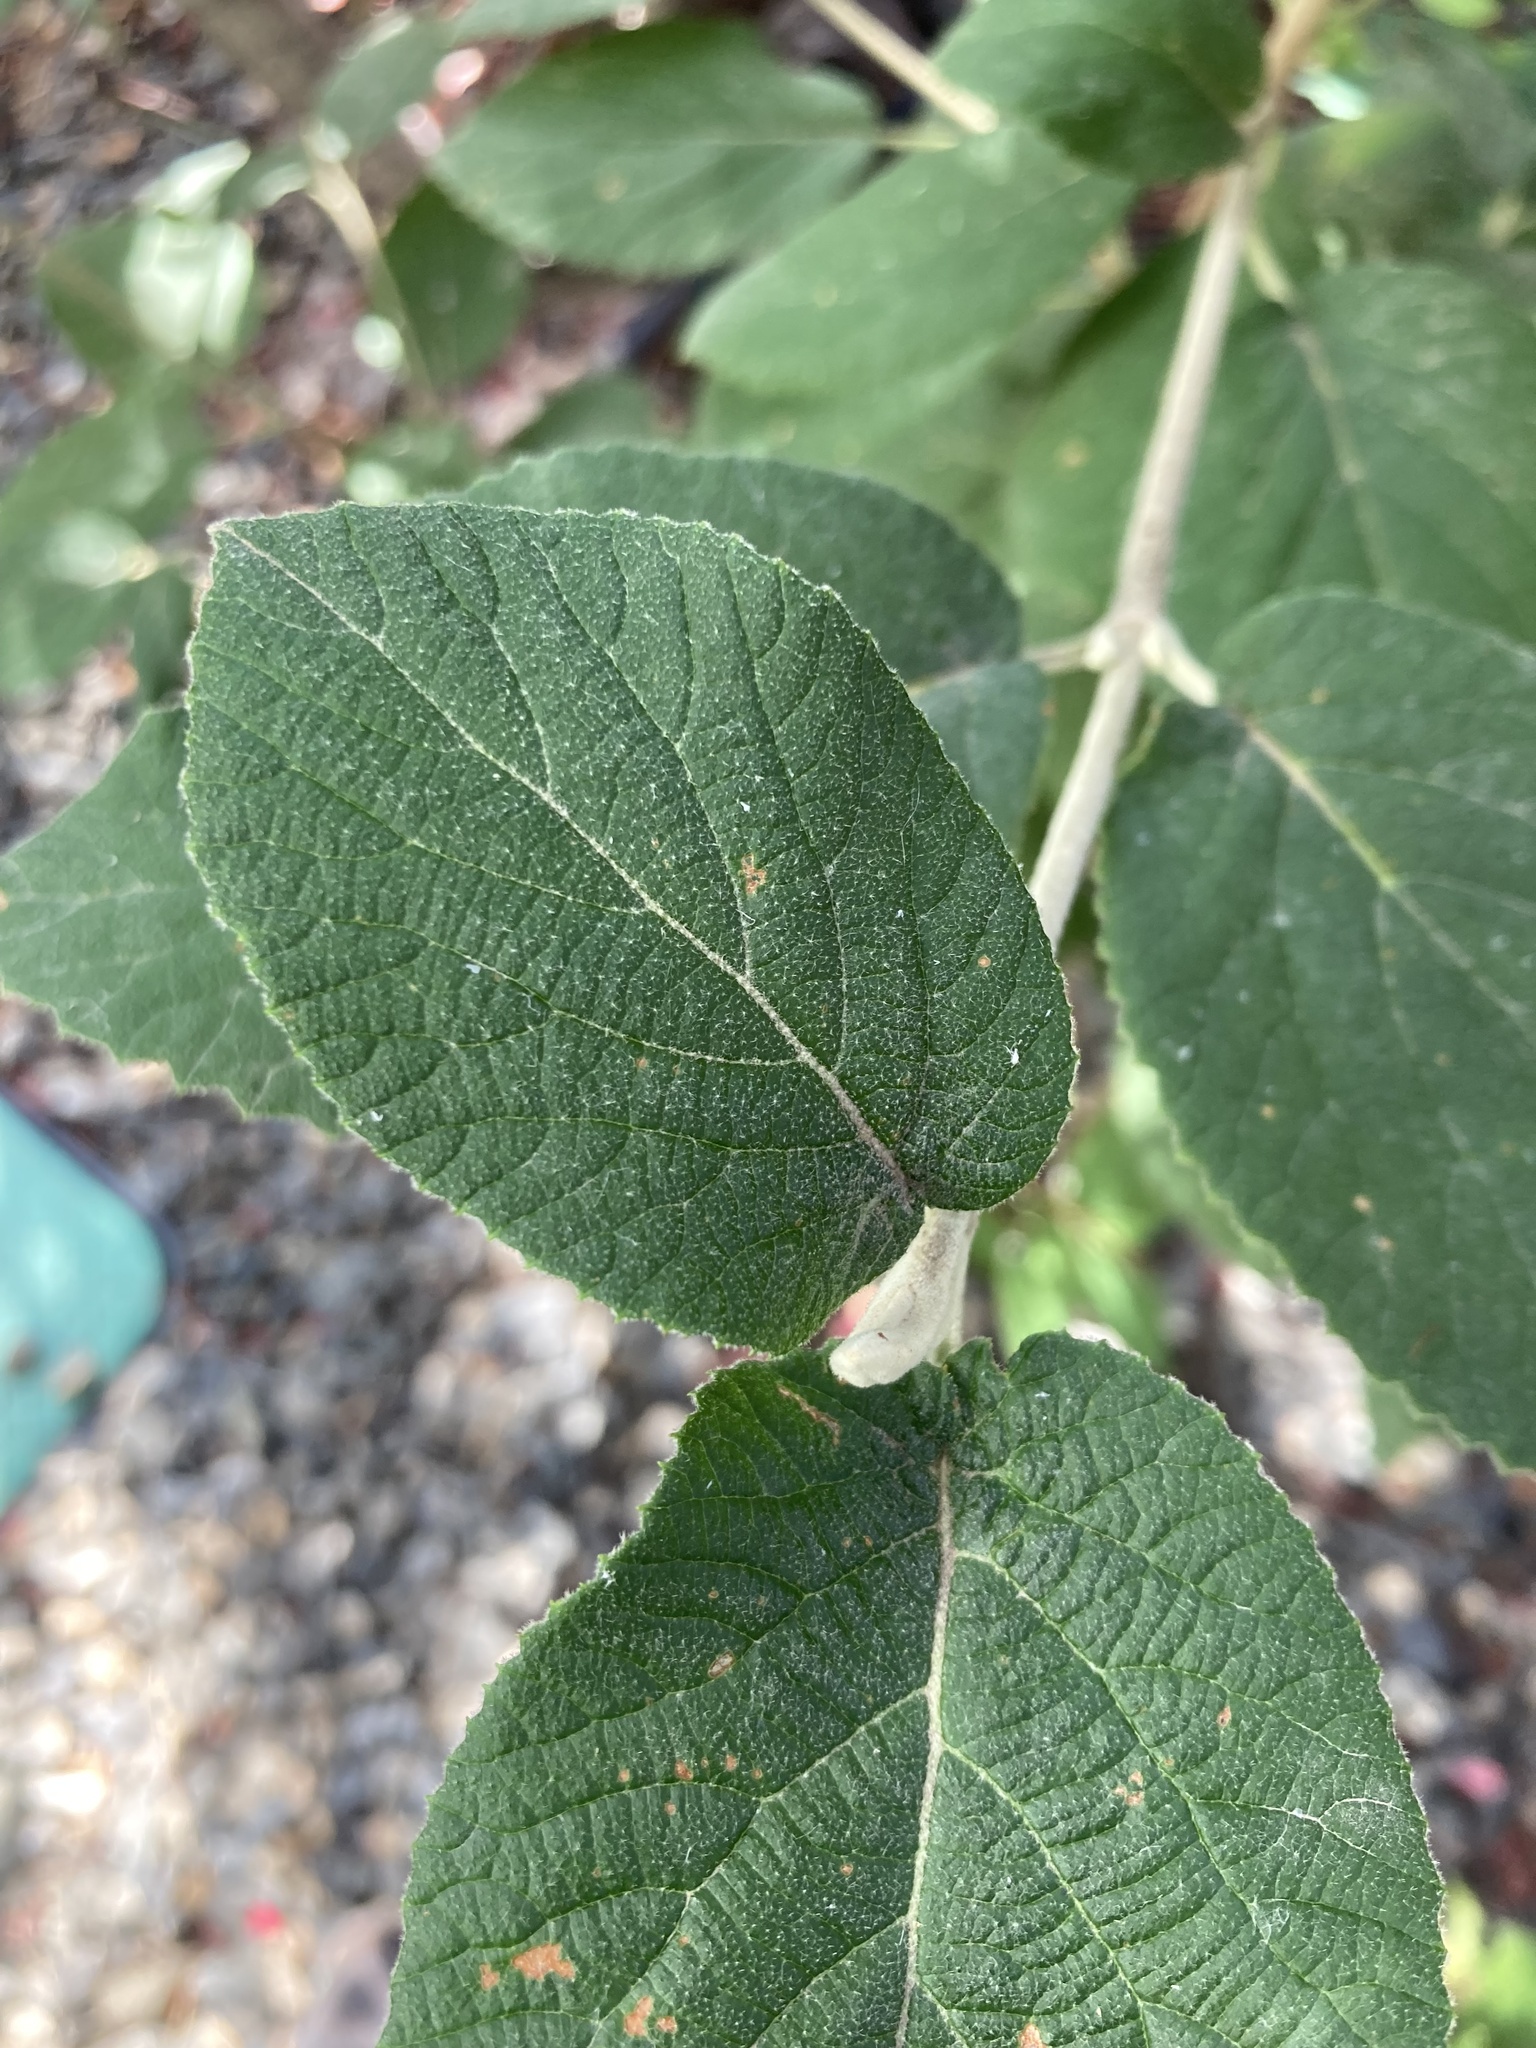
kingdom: Plantae
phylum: Tracheophyta
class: Magnoliopsida
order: Dipsacales
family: Viburnaceae
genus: Viburnum
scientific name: Viburnum lantana
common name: Wayfaring tree
